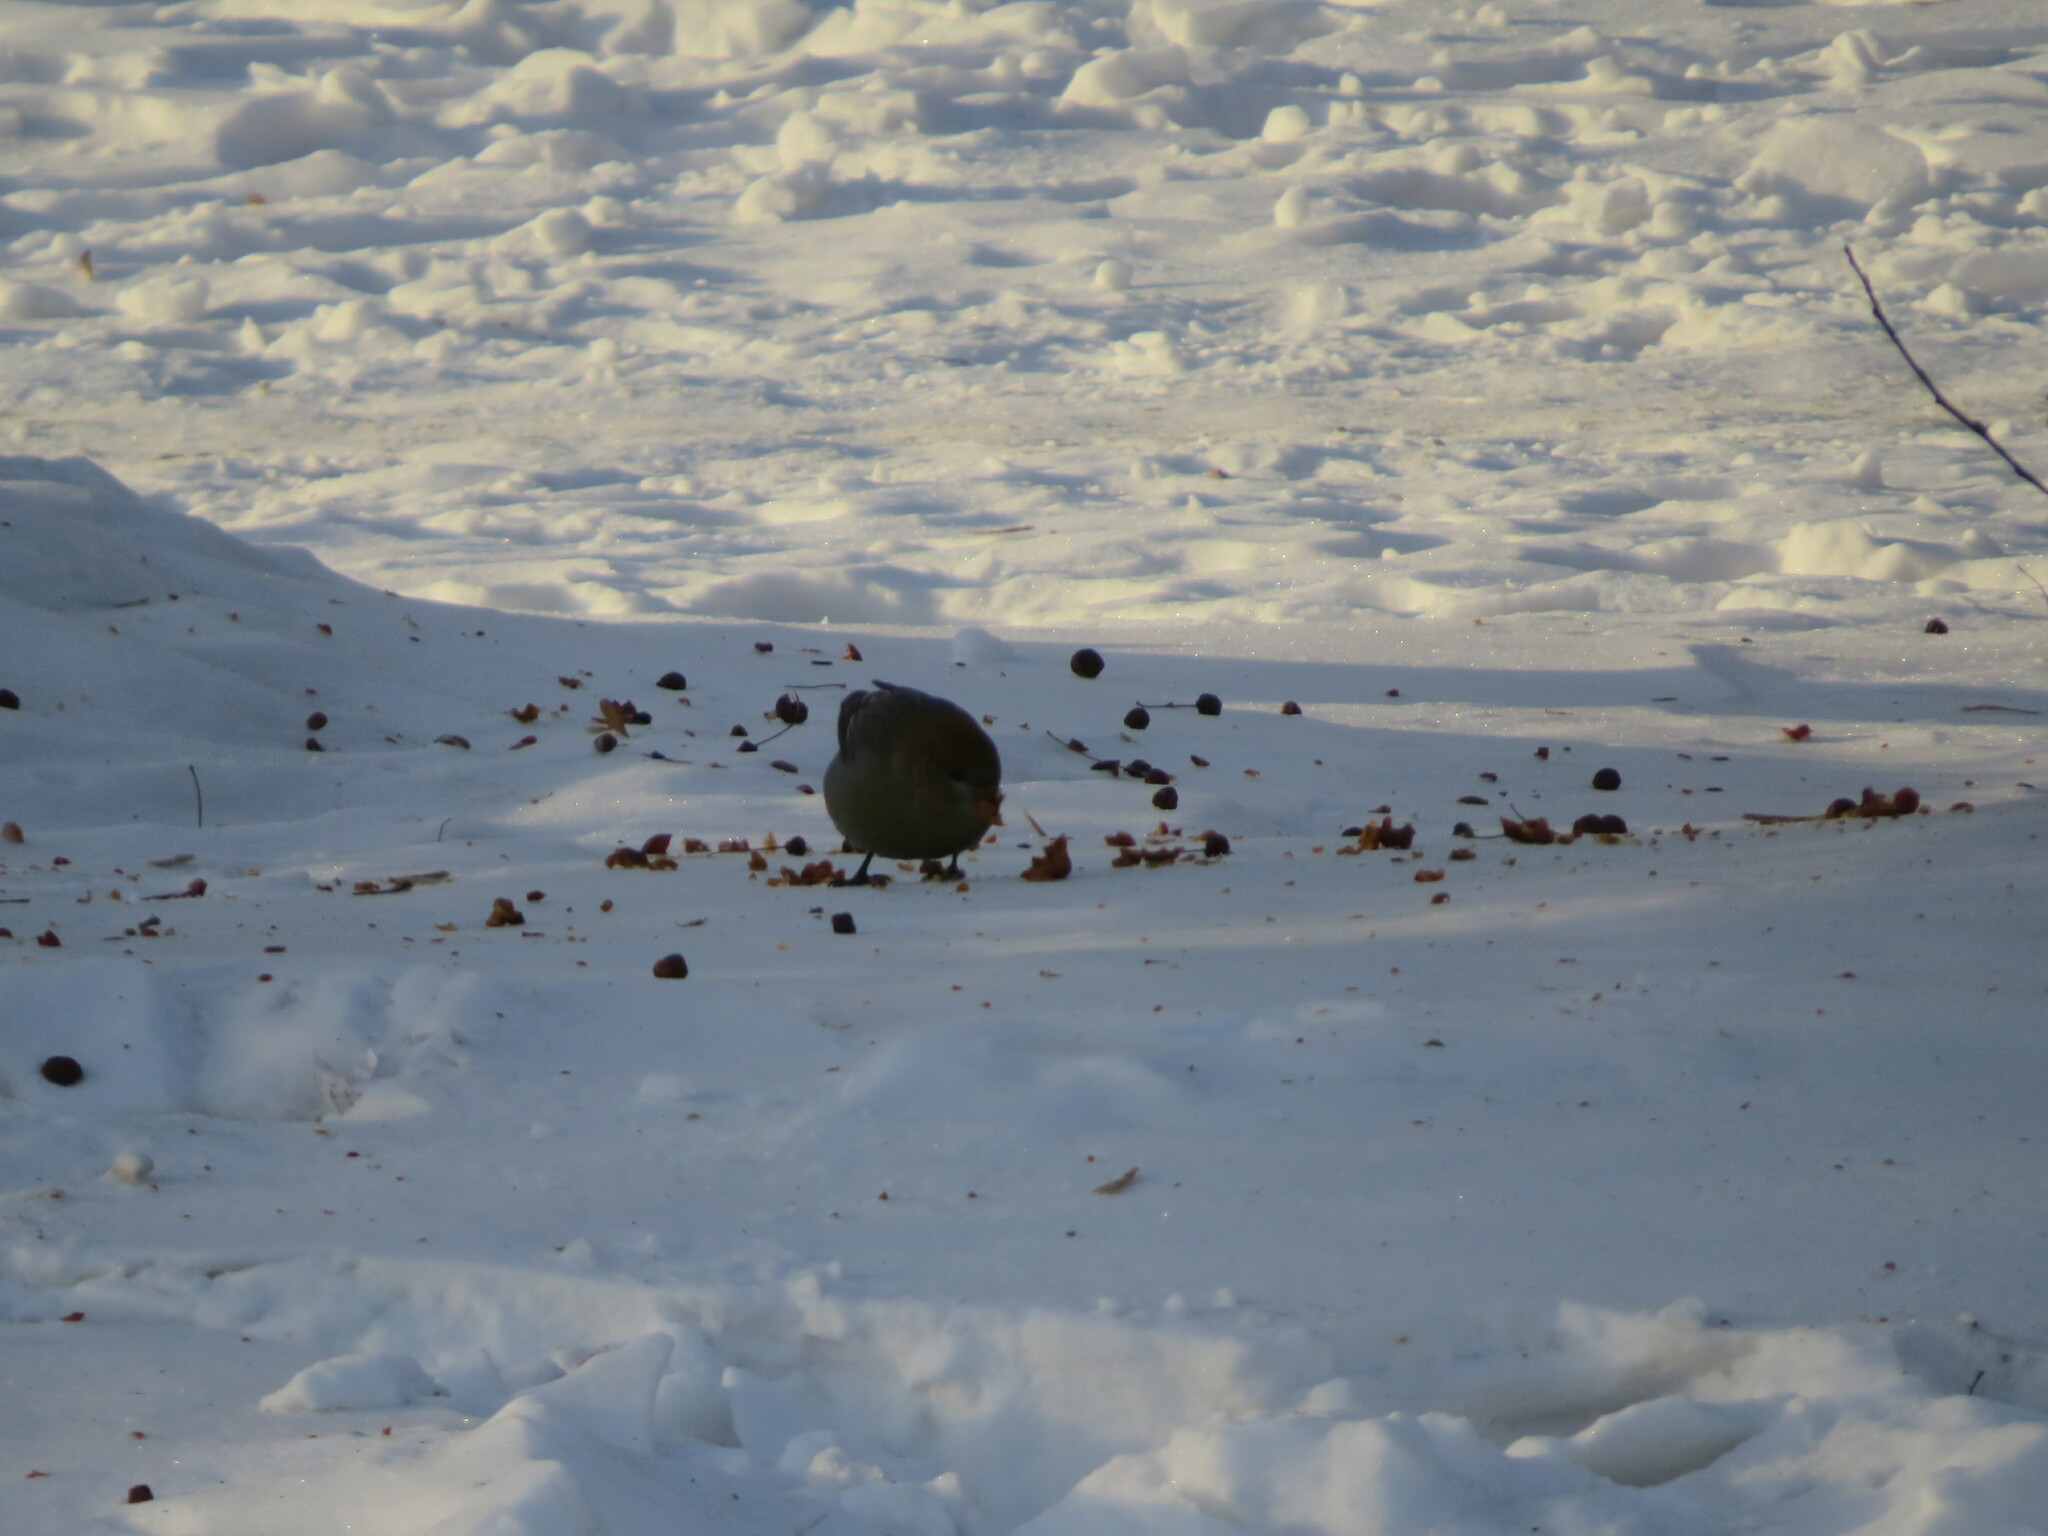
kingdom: Animalia
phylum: Chordata
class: Aves
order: Passeriformes
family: Fringillidae
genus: Pinicola
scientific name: Pinicola enucleator
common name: Pine grosbeak
